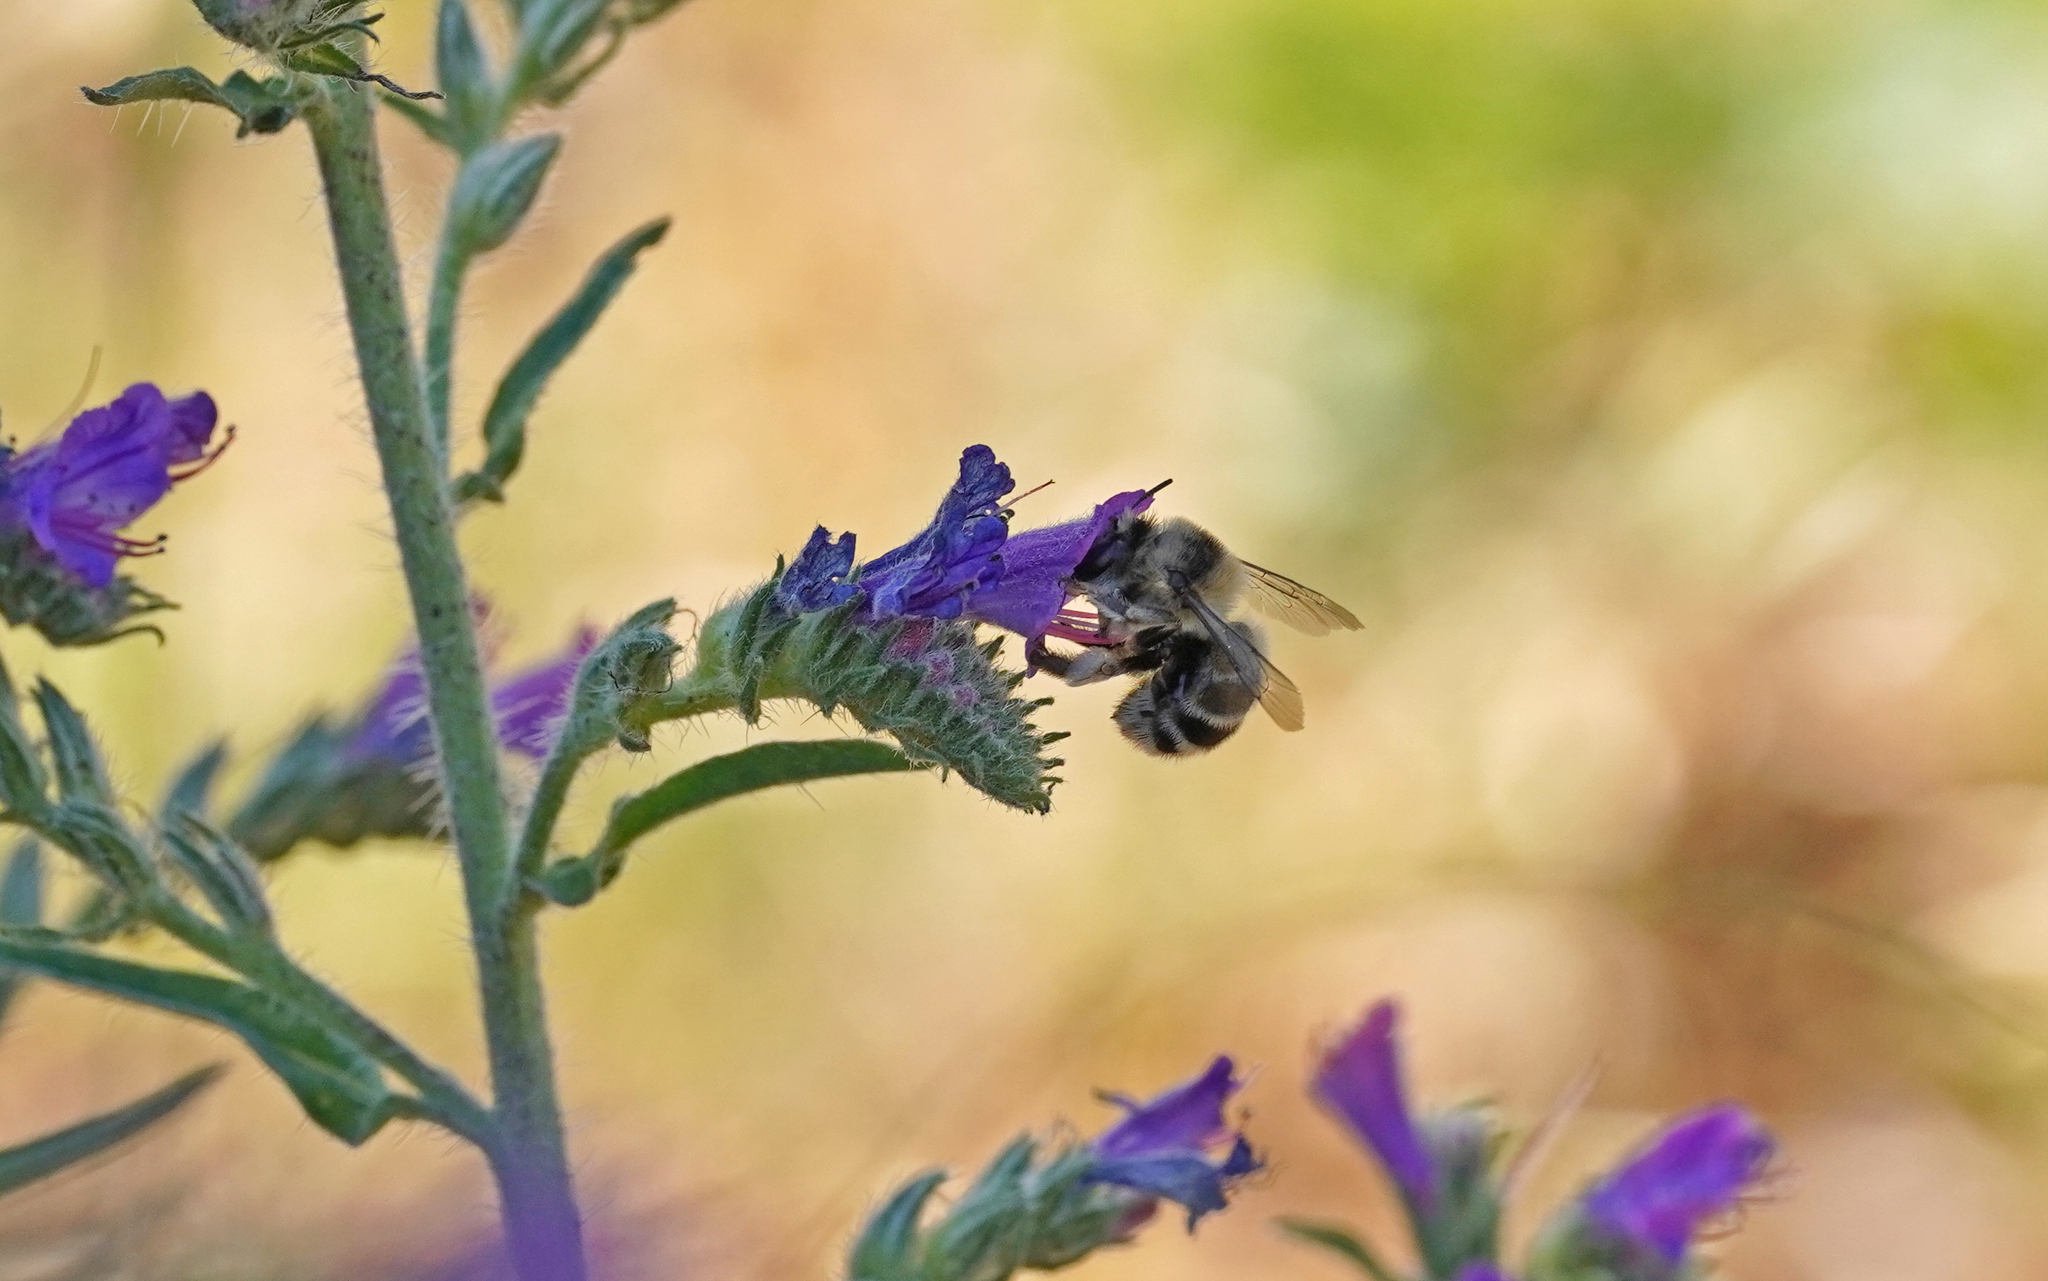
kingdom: Animalia
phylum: Arthropoda
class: Insecta
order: Hymenoptera
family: Apidae
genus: Anthophora
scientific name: Anthophora aestivalis
